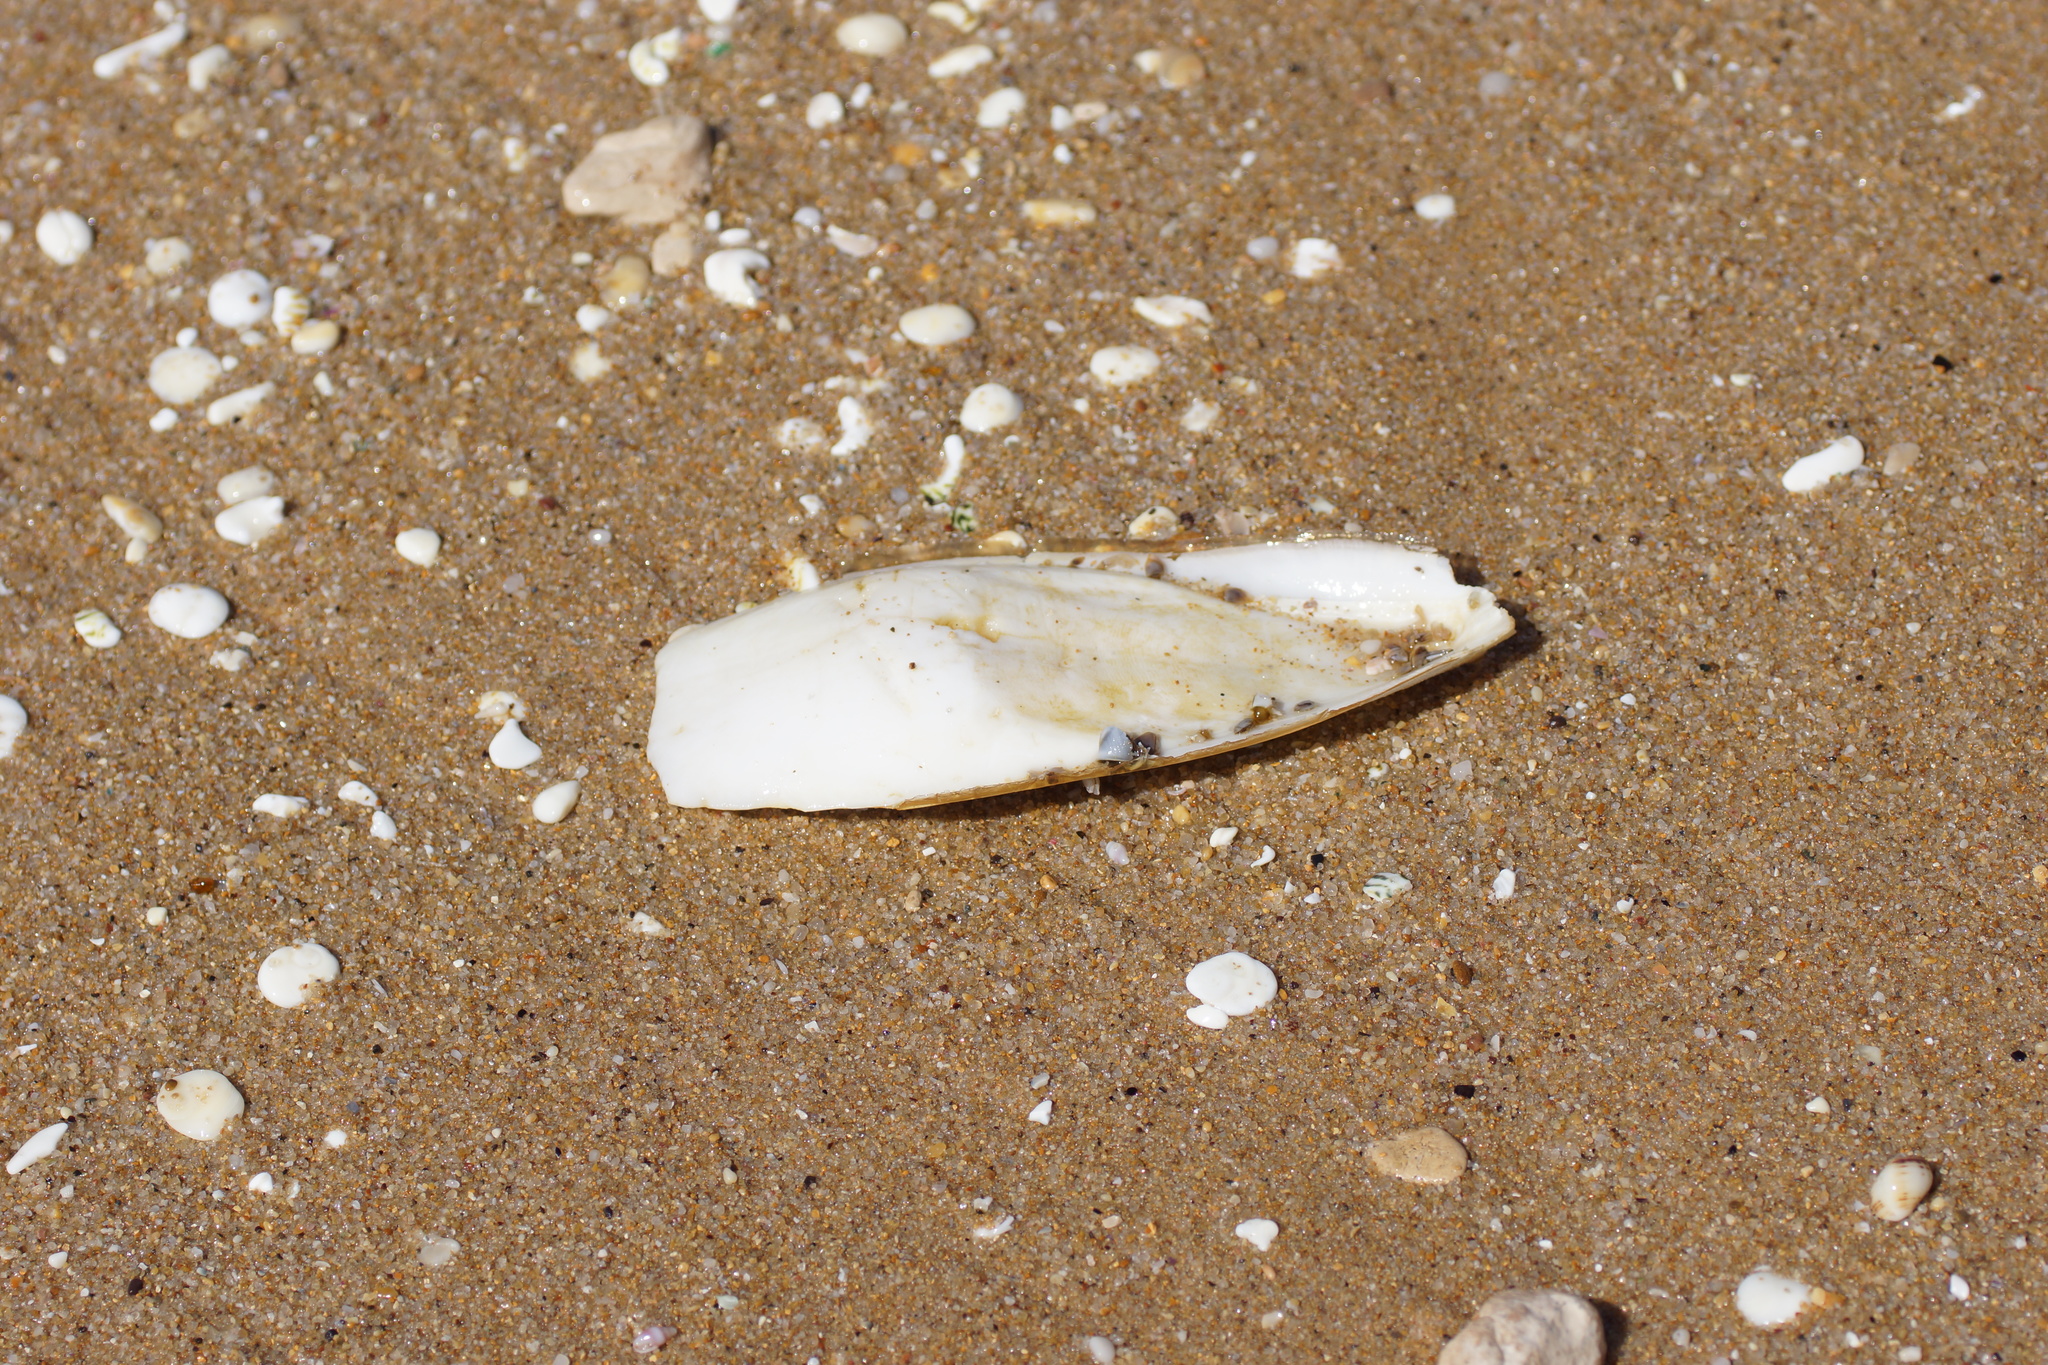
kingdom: Animalia
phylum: Mollusca
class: Cephalopoda
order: Sepiida
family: Sepiidae
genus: Ascarosepion
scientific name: Ascarosepion apama
